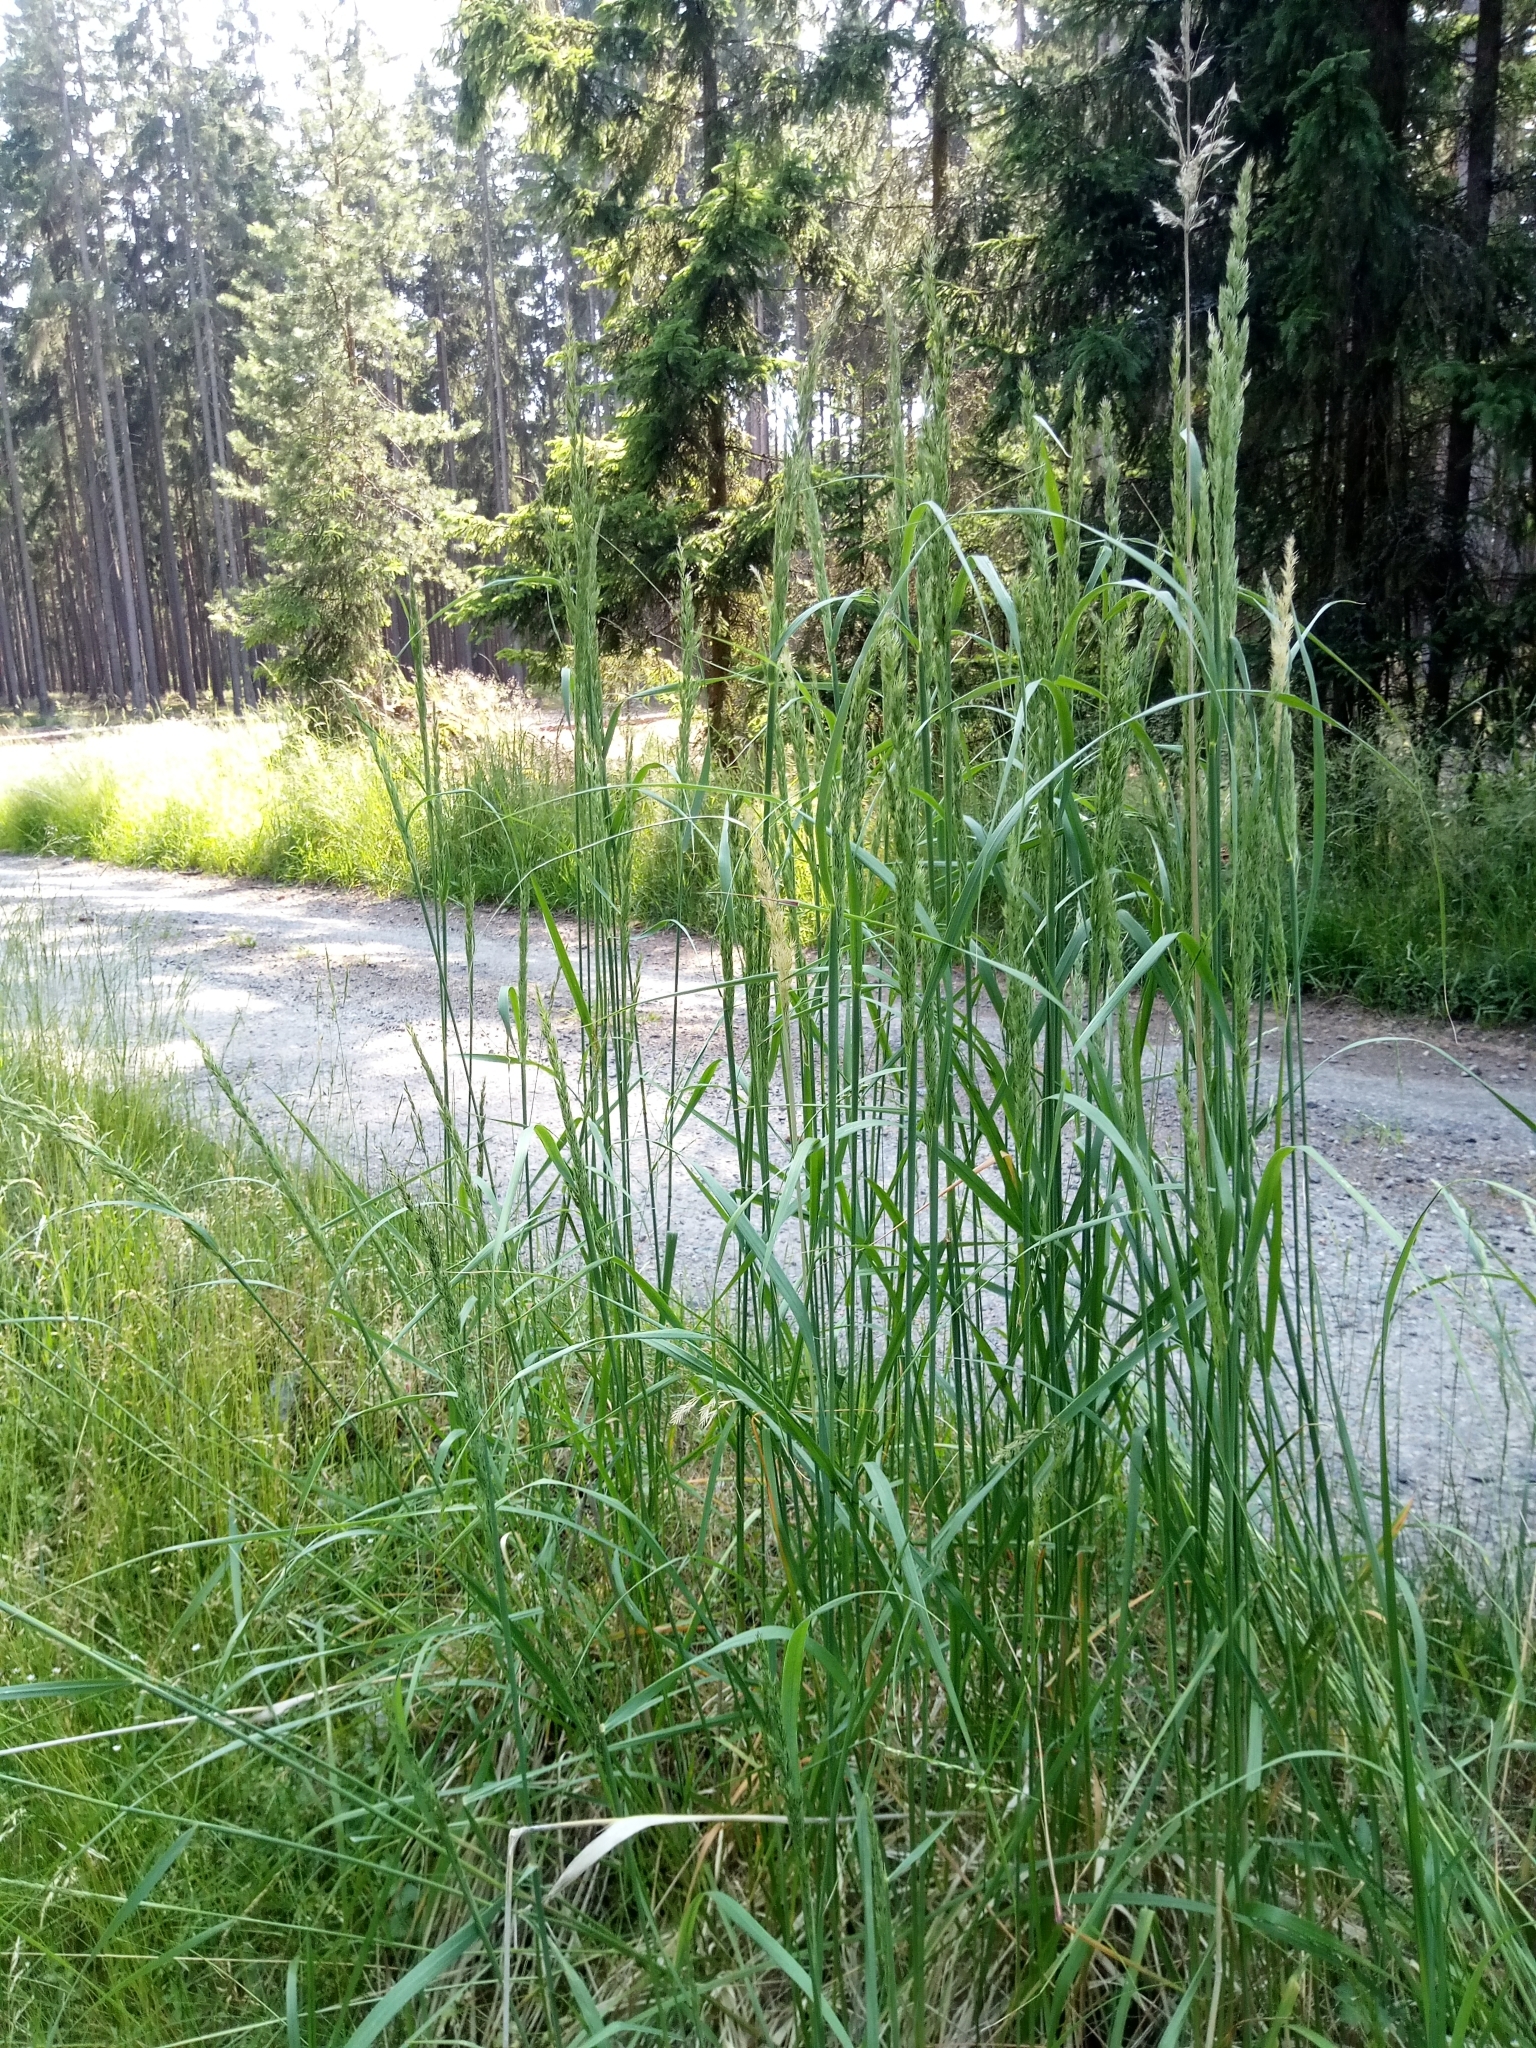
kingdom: Plantae
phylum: Tracheophyta
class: Liliopsida
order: Poales
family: Poaceae
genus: Calamagrostis
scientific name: Calamagrostis epigejos
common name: Wood small-reed
